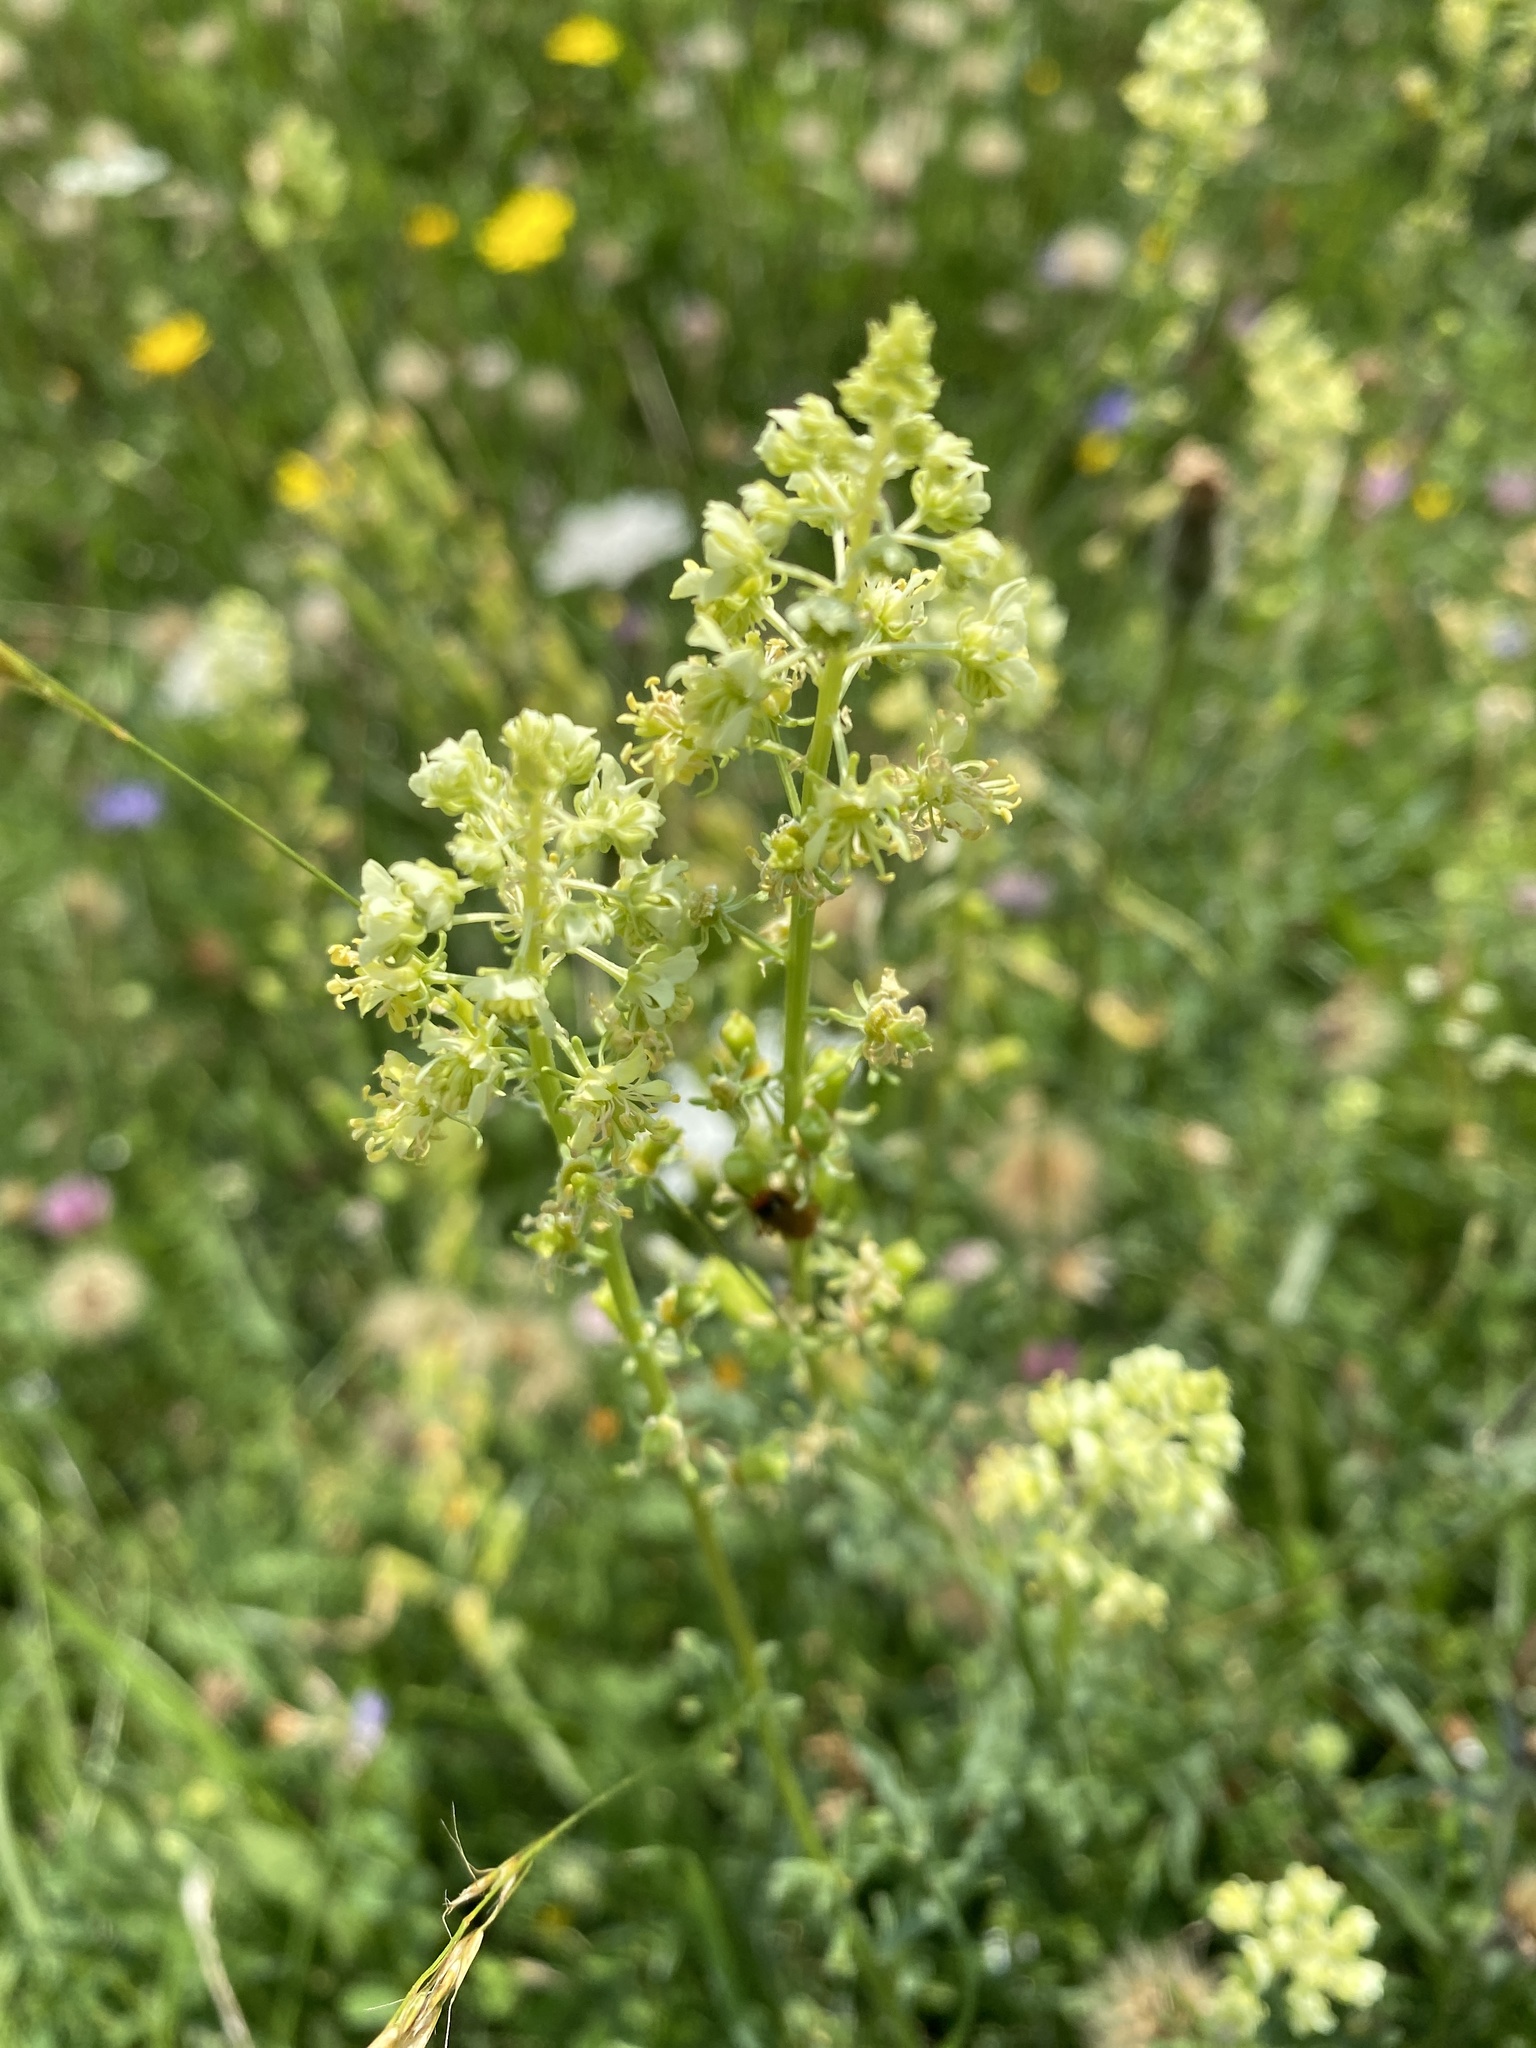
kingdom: Plantae
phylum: Tracheophyta
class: Magnoliopsida
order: Brassicales
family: Resedaceae
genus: Reseda
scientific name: Reseda lutea
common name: Wild mignonette
